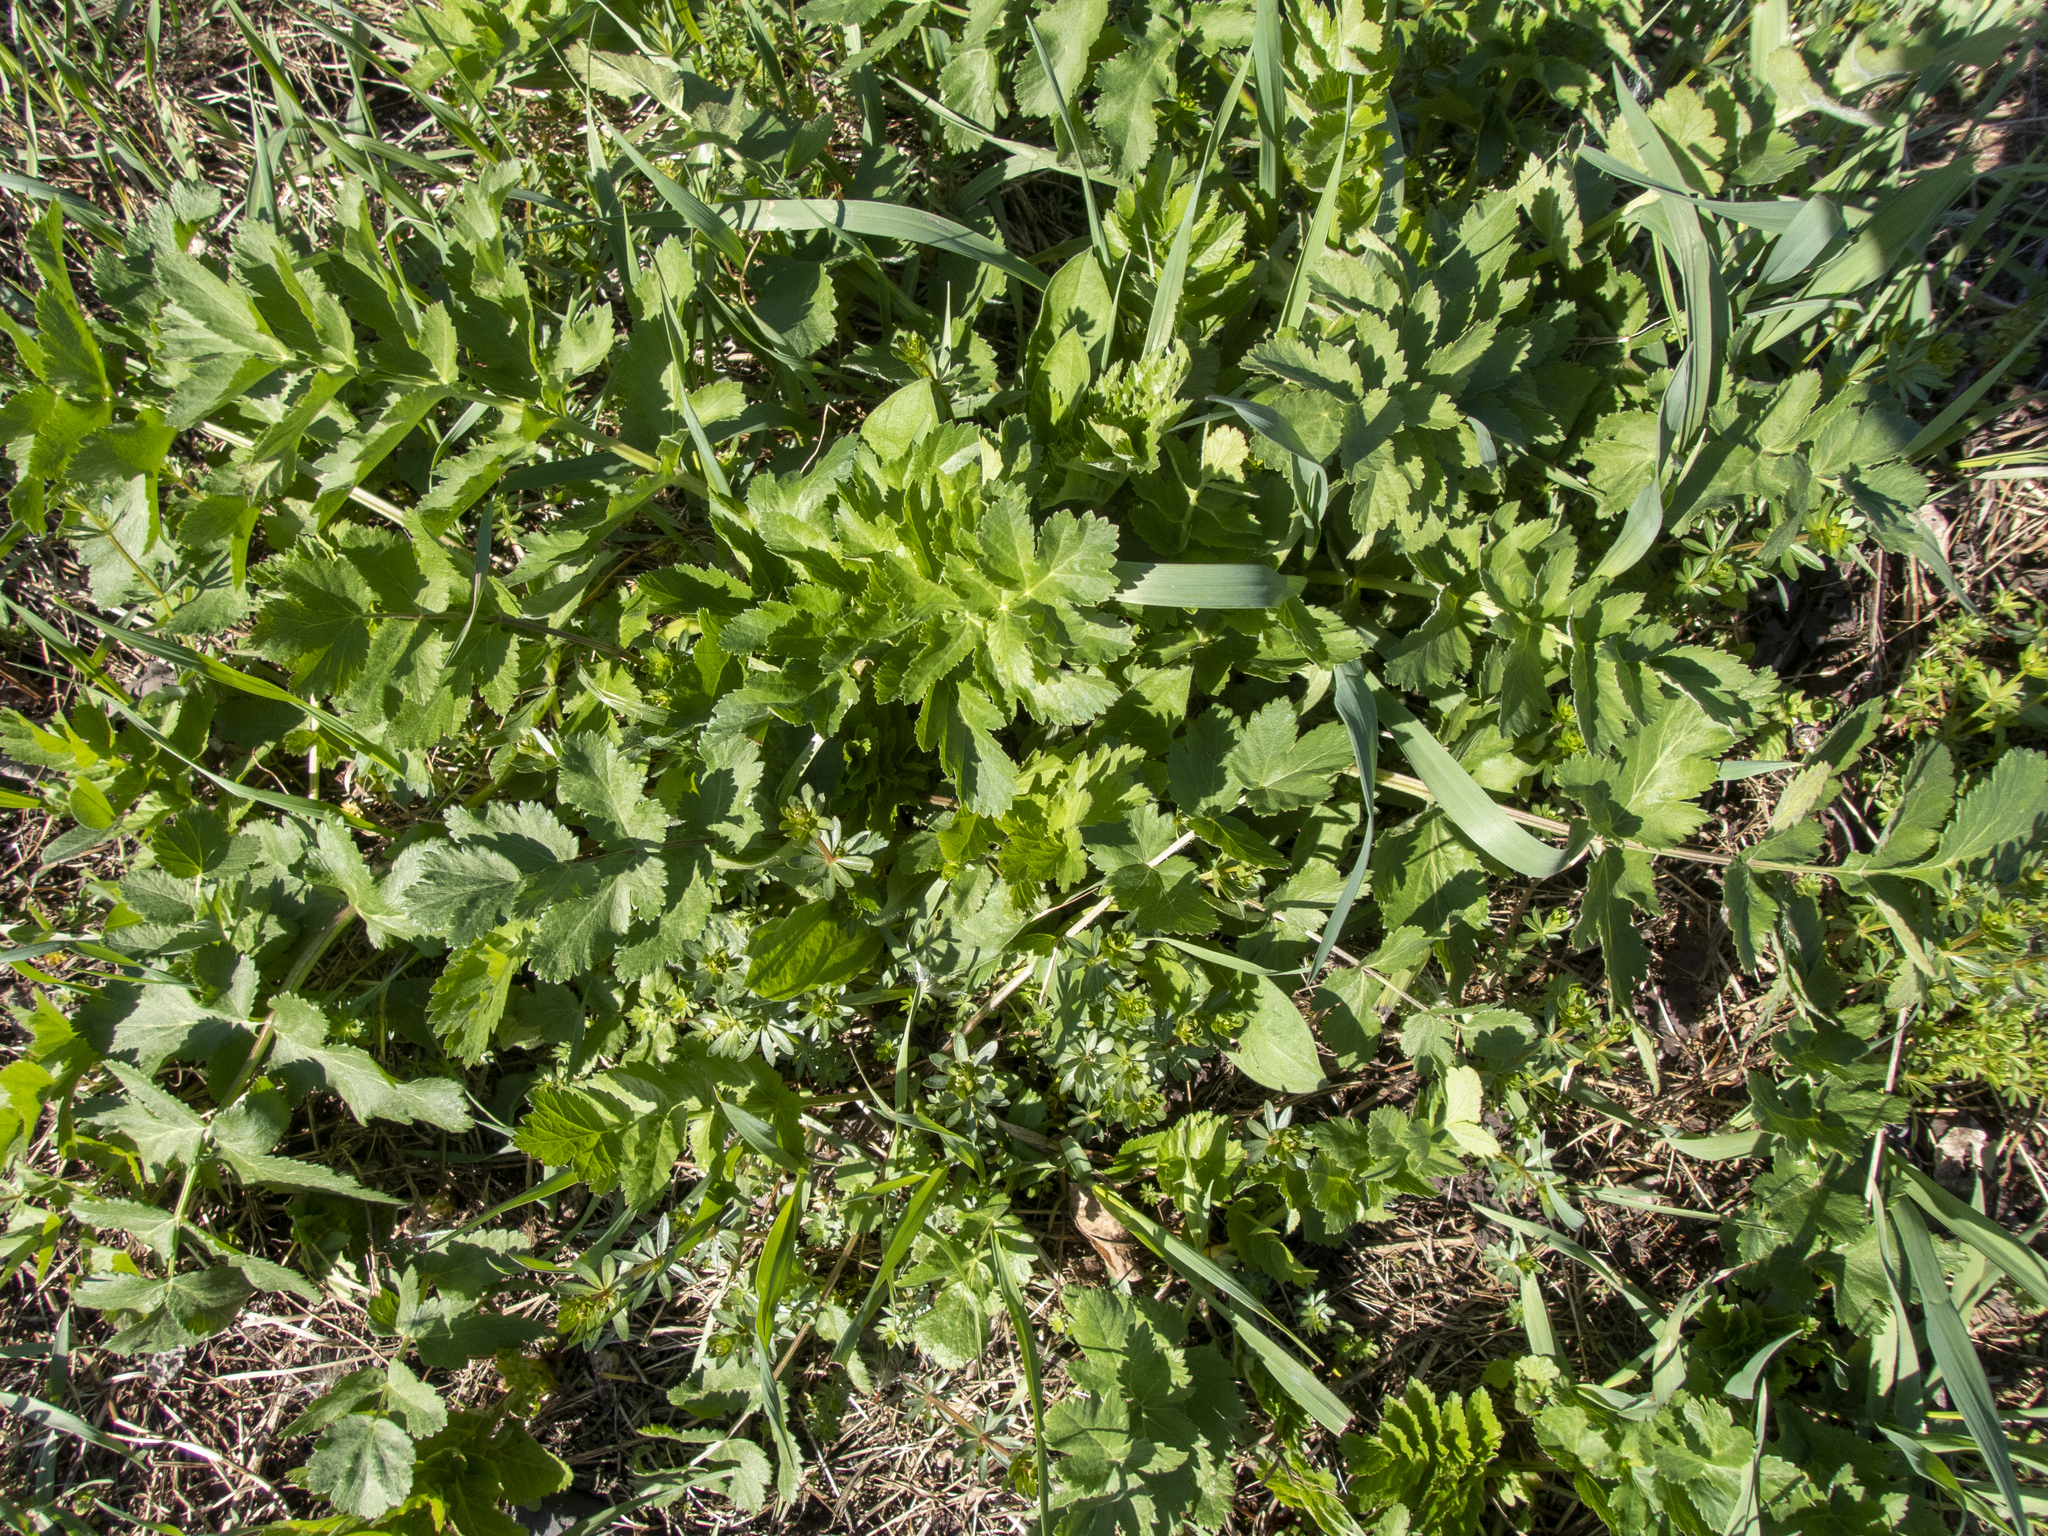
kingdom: Plantae
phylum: Tracheophyta
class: Magnoliopsida
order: Apiales
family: Apiaceae
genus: Pastinaca
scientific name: Pastinaca sativa
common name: Wild parsnip
